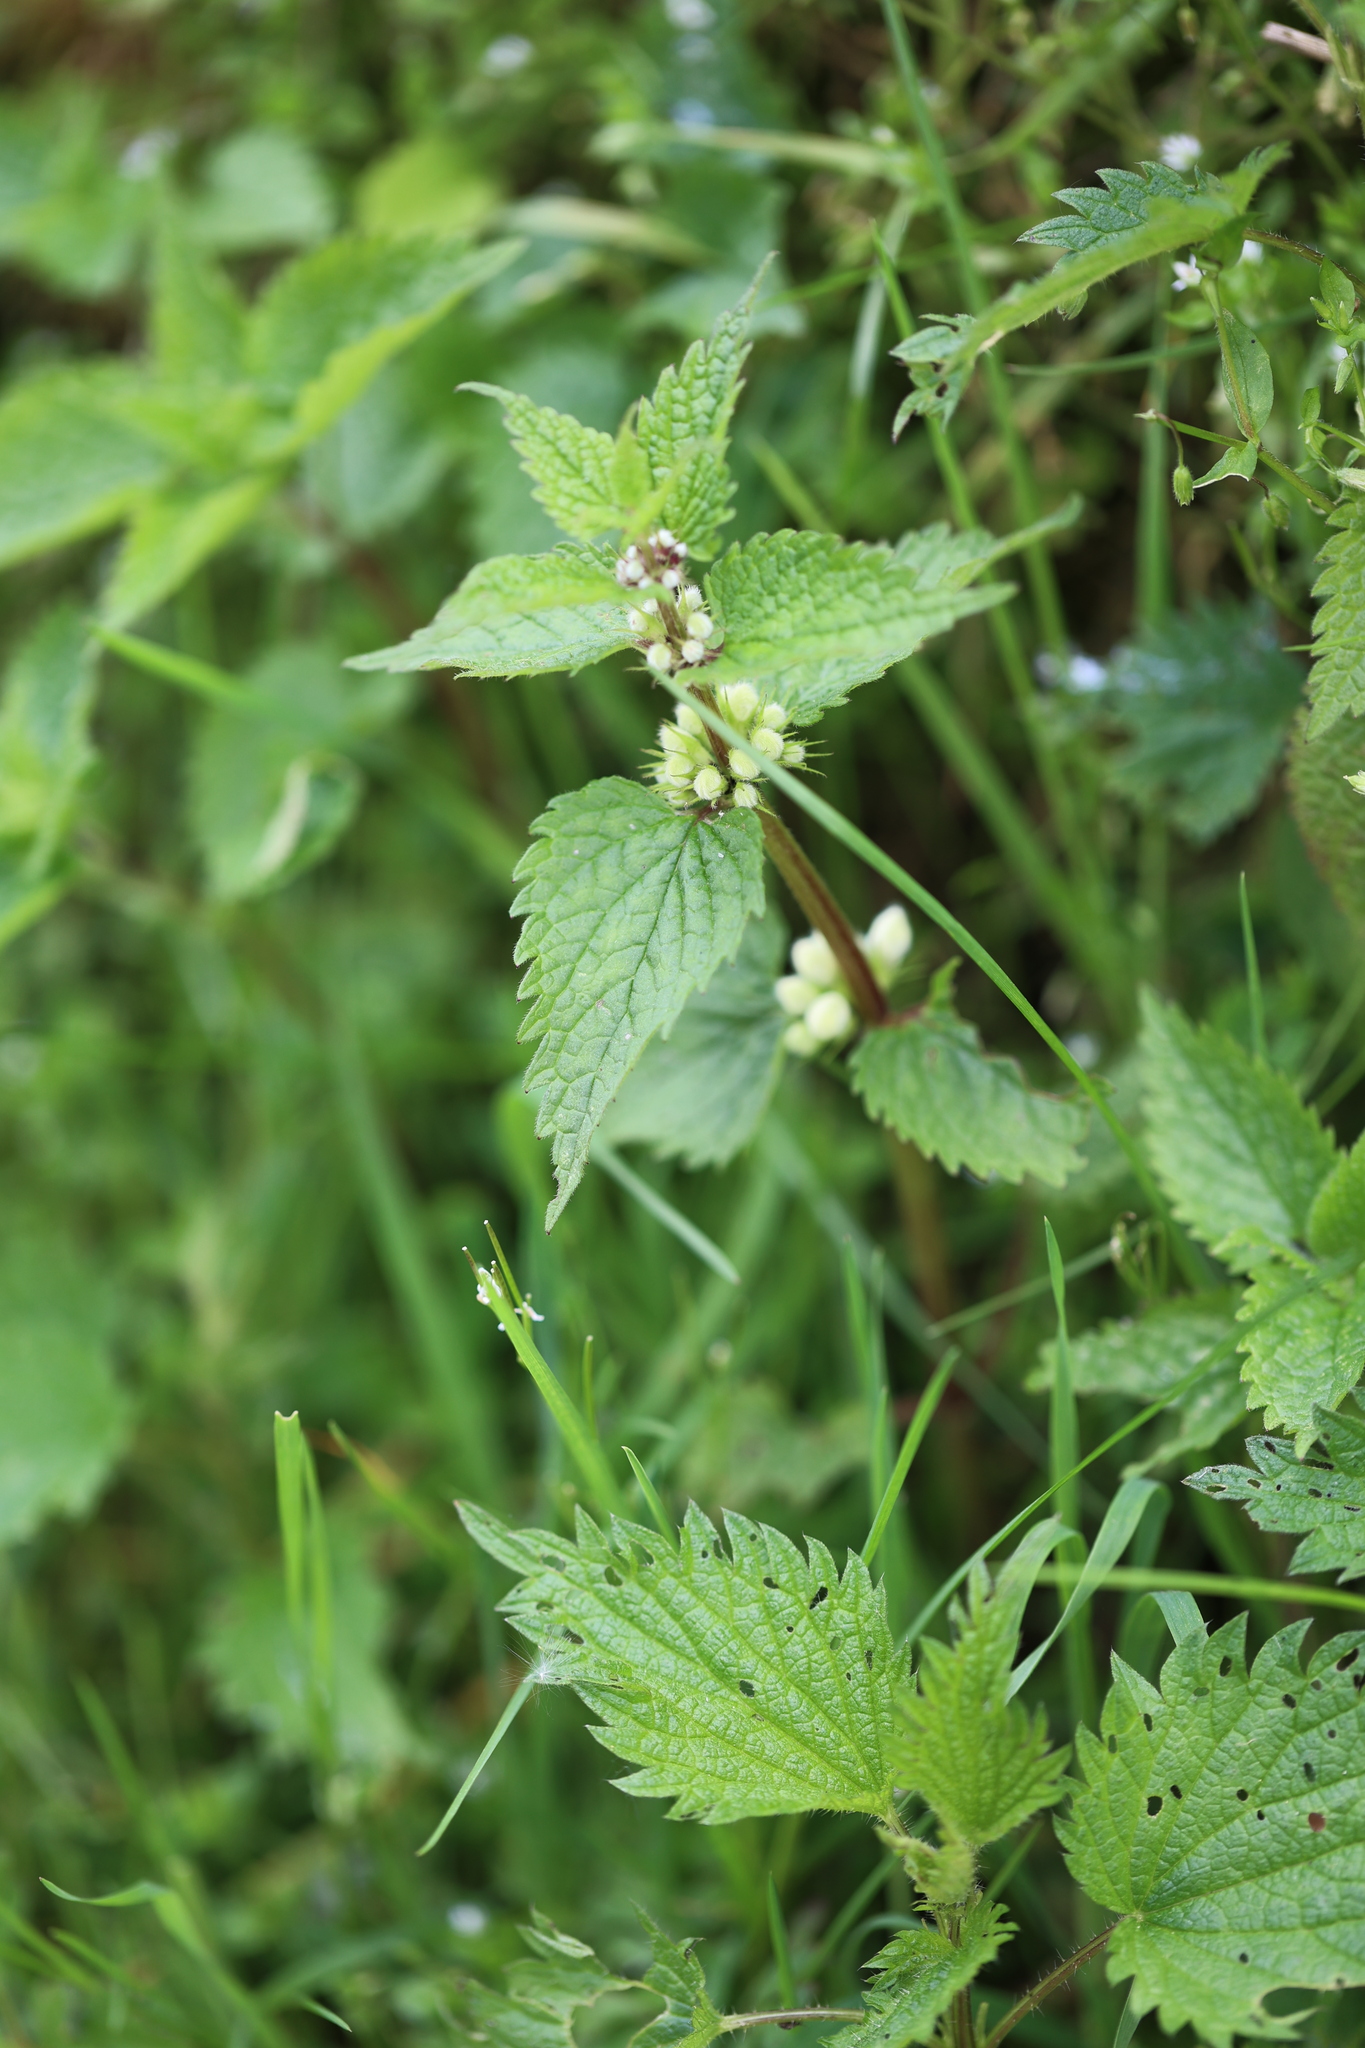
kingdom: Plantae
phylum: Tracheophyta
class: Magnoliopsida
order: Lamiales
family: Lamiaceae
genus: Lamium
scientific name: Lamium album
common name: White dead-nettle
